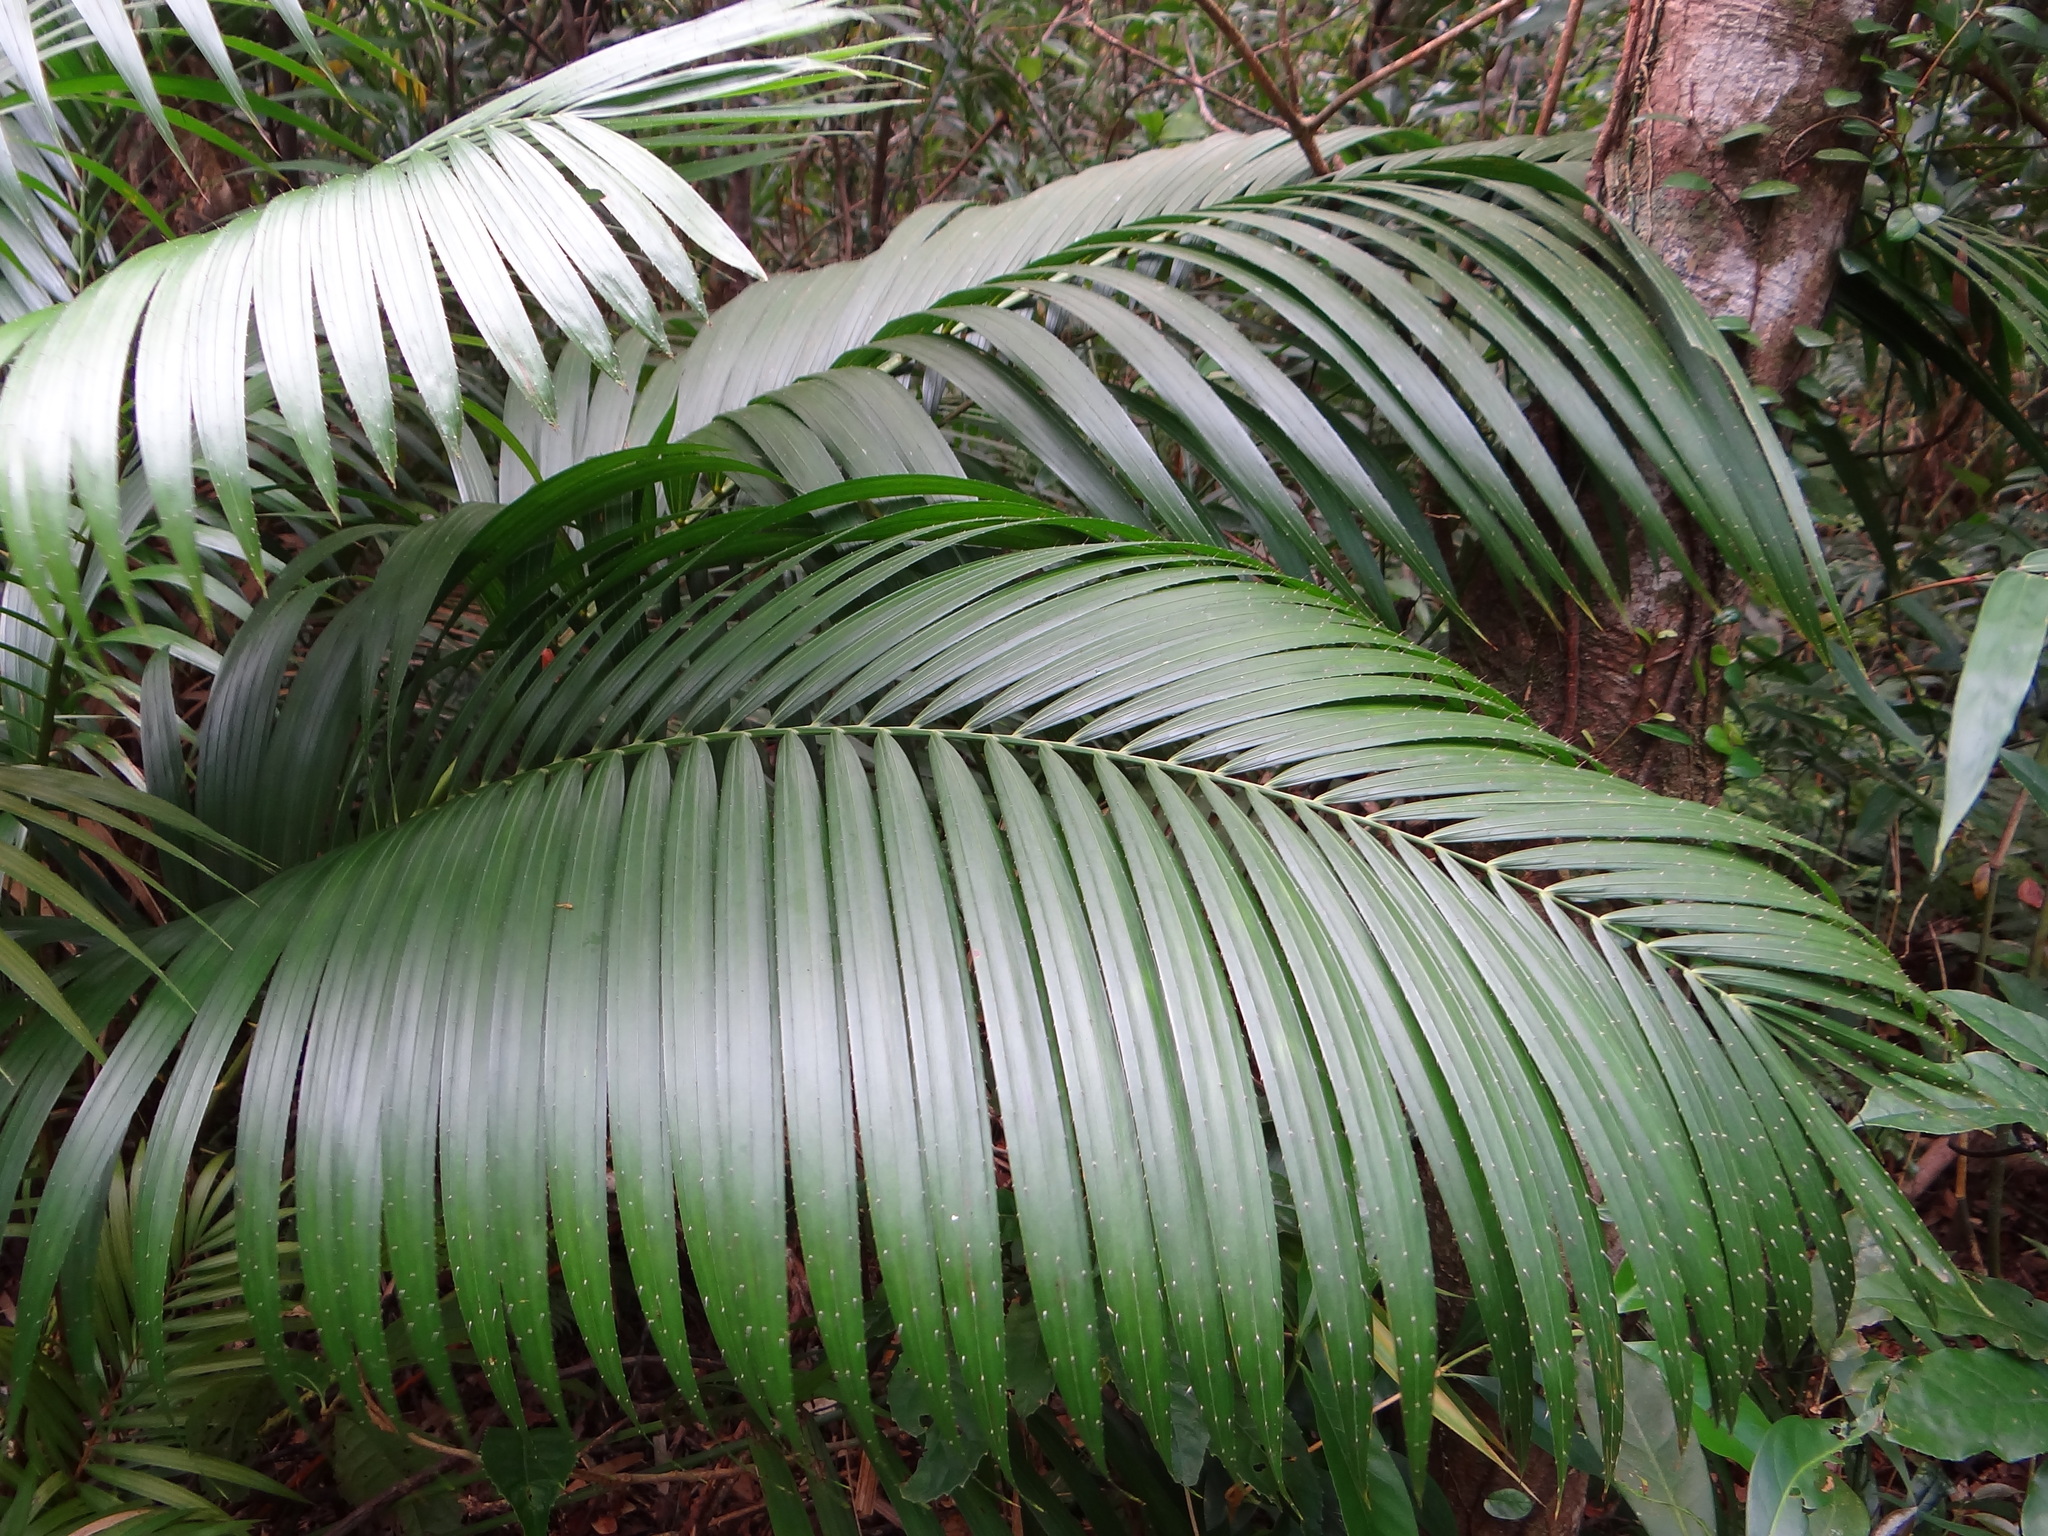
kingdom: Plantae
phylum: Tracheophyta
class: Liliopsida
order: Arecales
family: Arecaceae
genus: Calamus
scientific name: Calamus beccarii
